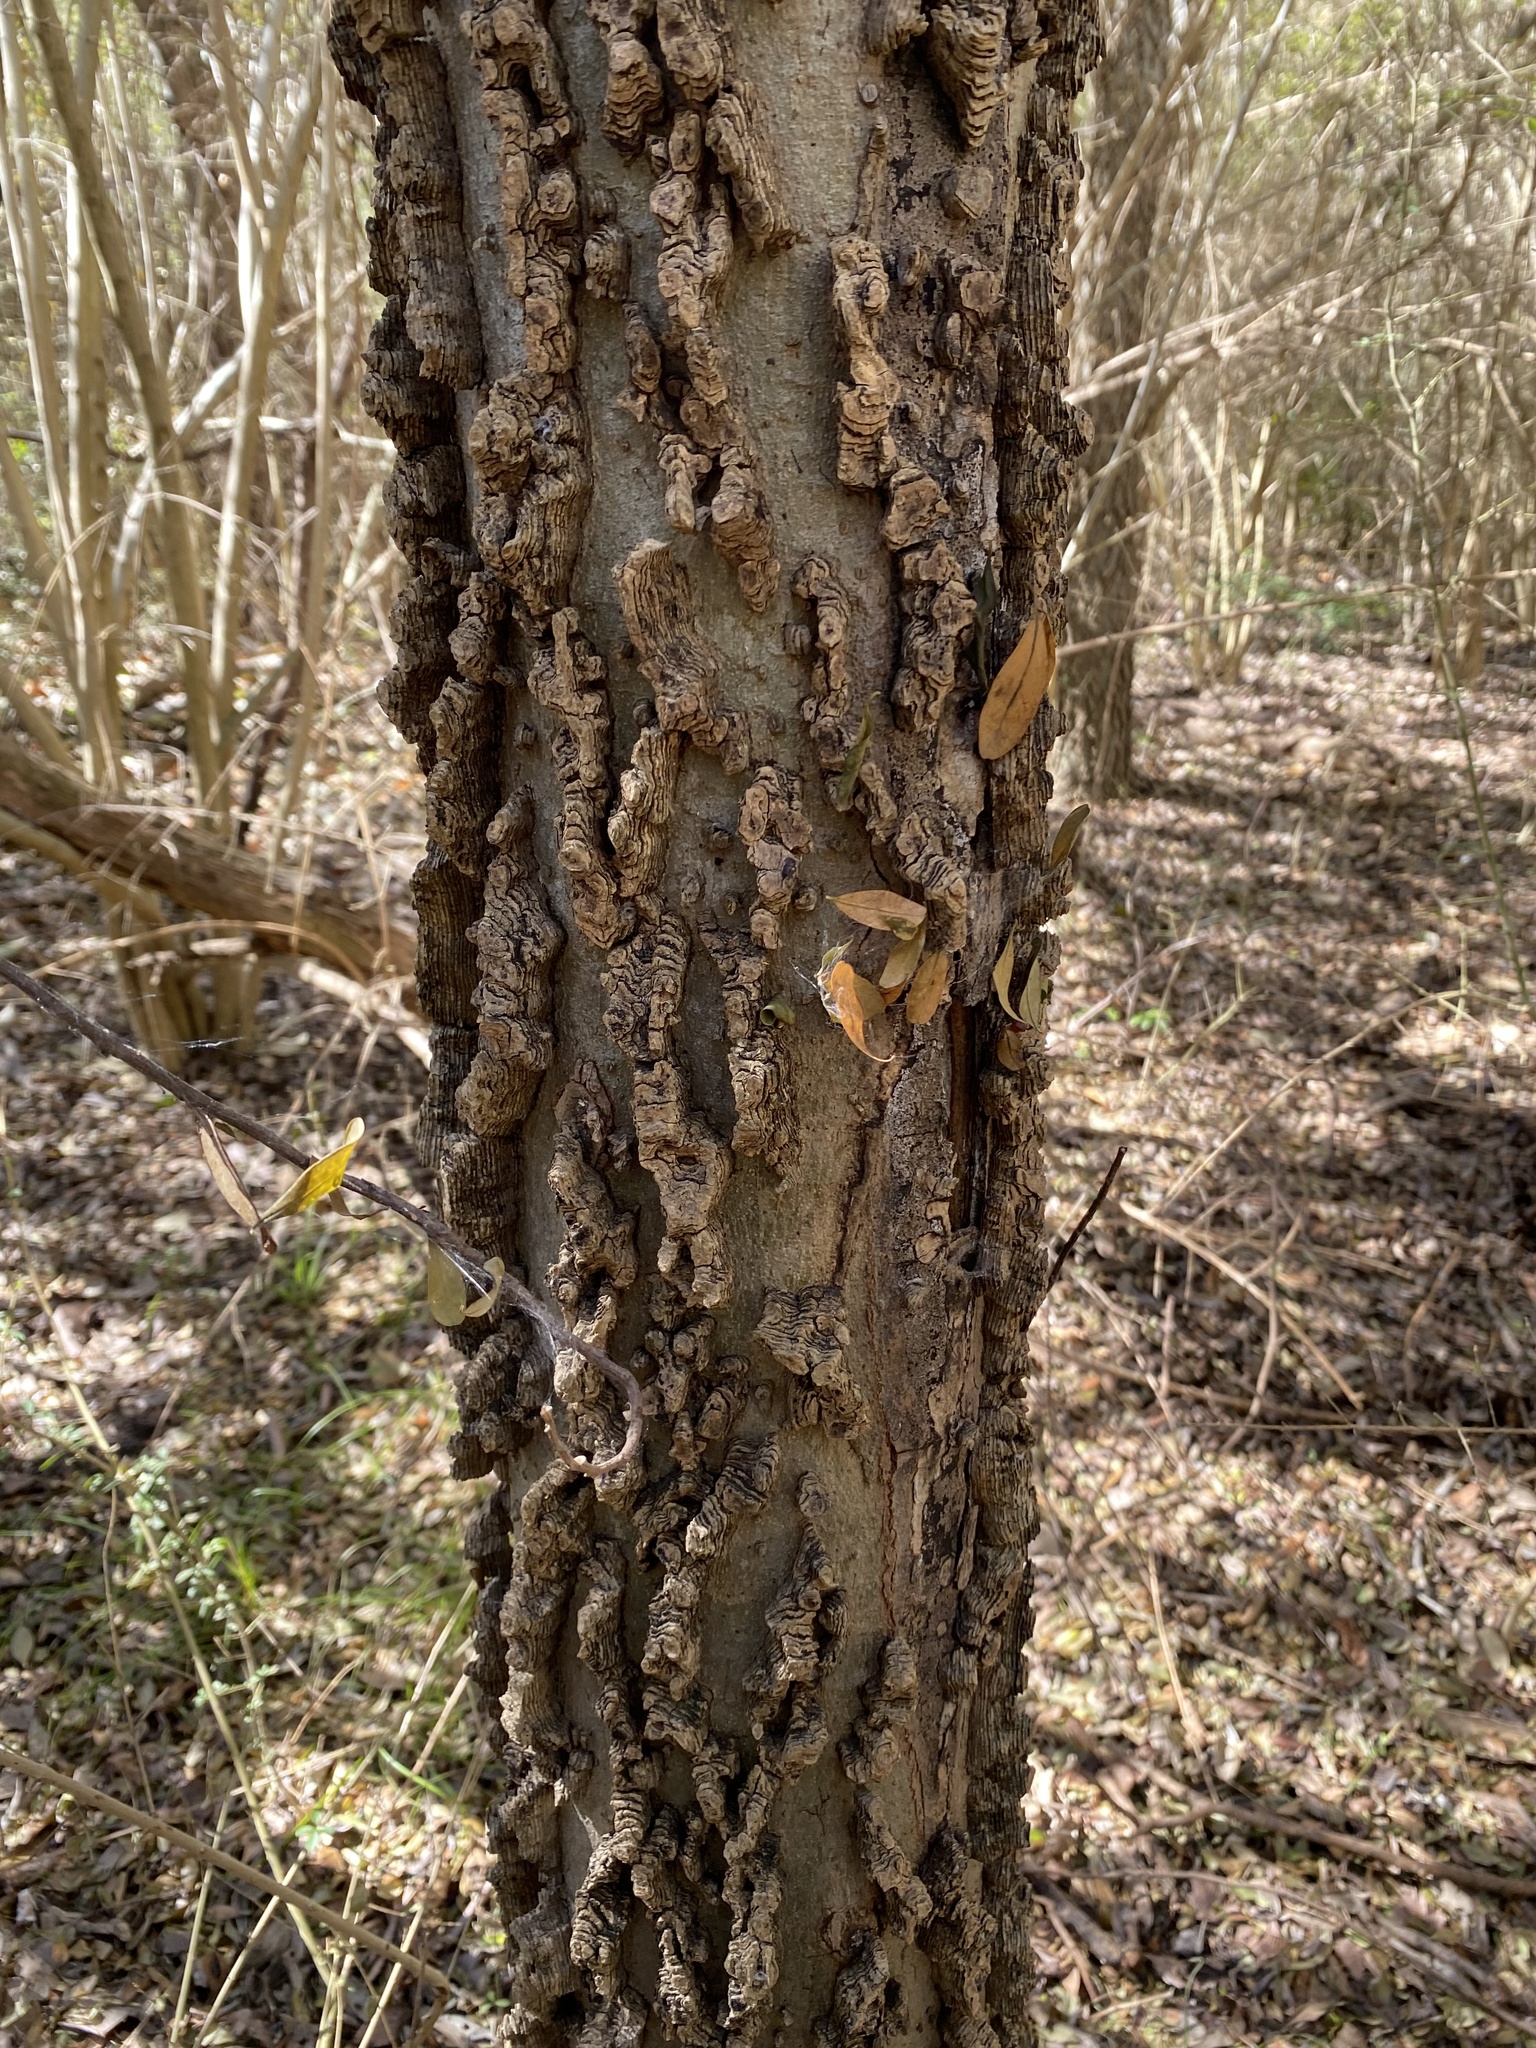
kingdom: Plantae
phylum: Tracheophyta
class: Magnoliopsida
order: Rosales
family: Cannabaceae
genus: Celtis
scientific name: Celtis laevigata
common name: Sugarberry
